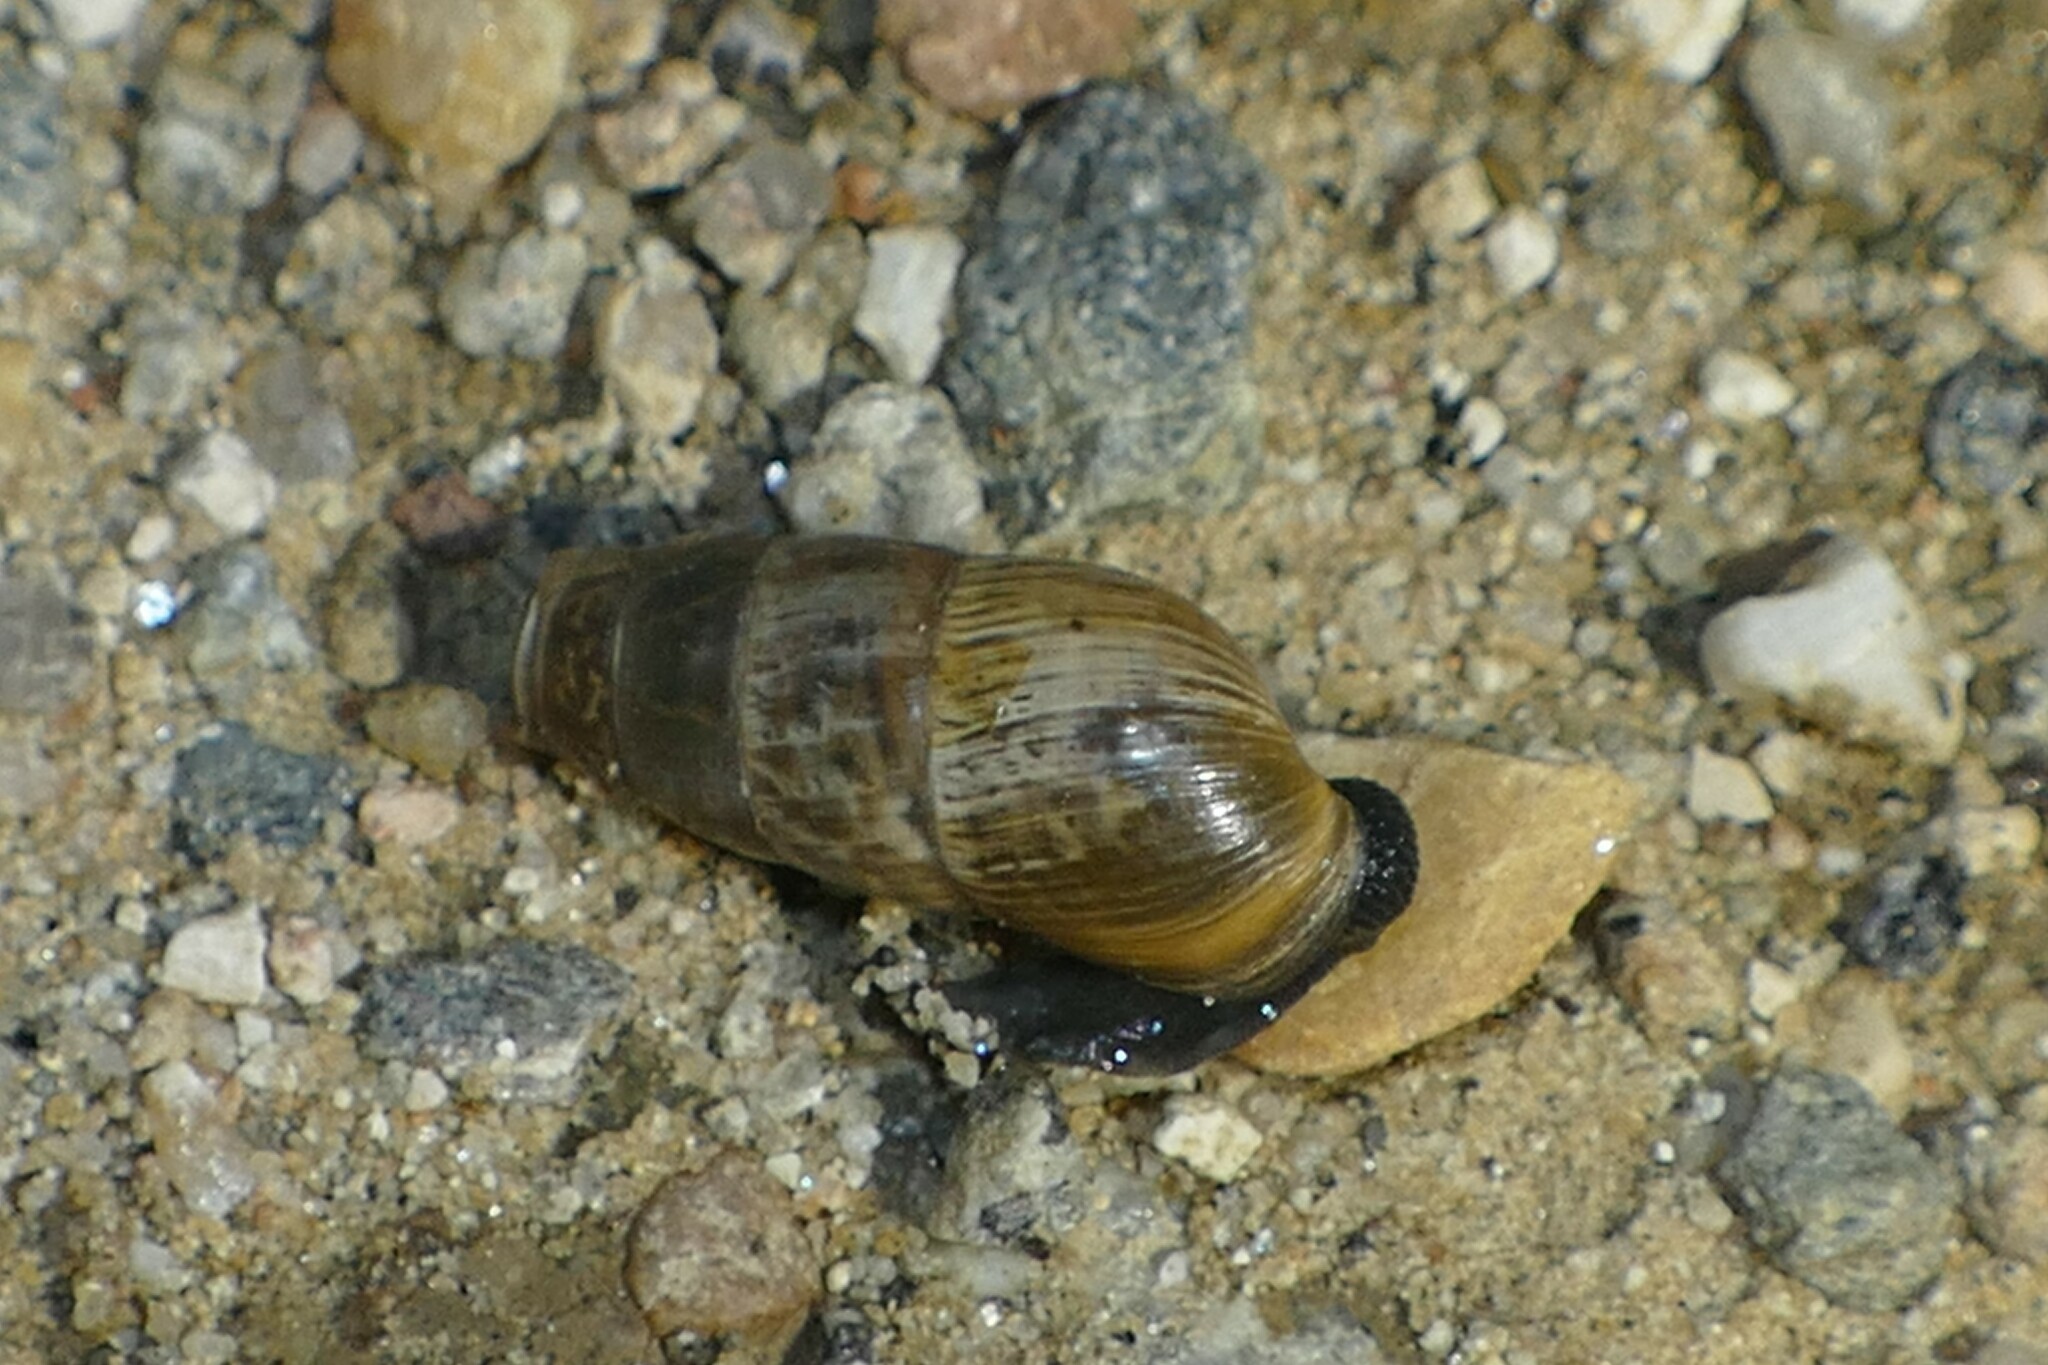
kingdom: Animalia
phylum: Mollusca
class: Gastropoda
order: Stylommatophora
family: Achatinidae
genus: Rumina
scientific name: Rumina decollata
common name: Decollate snail
